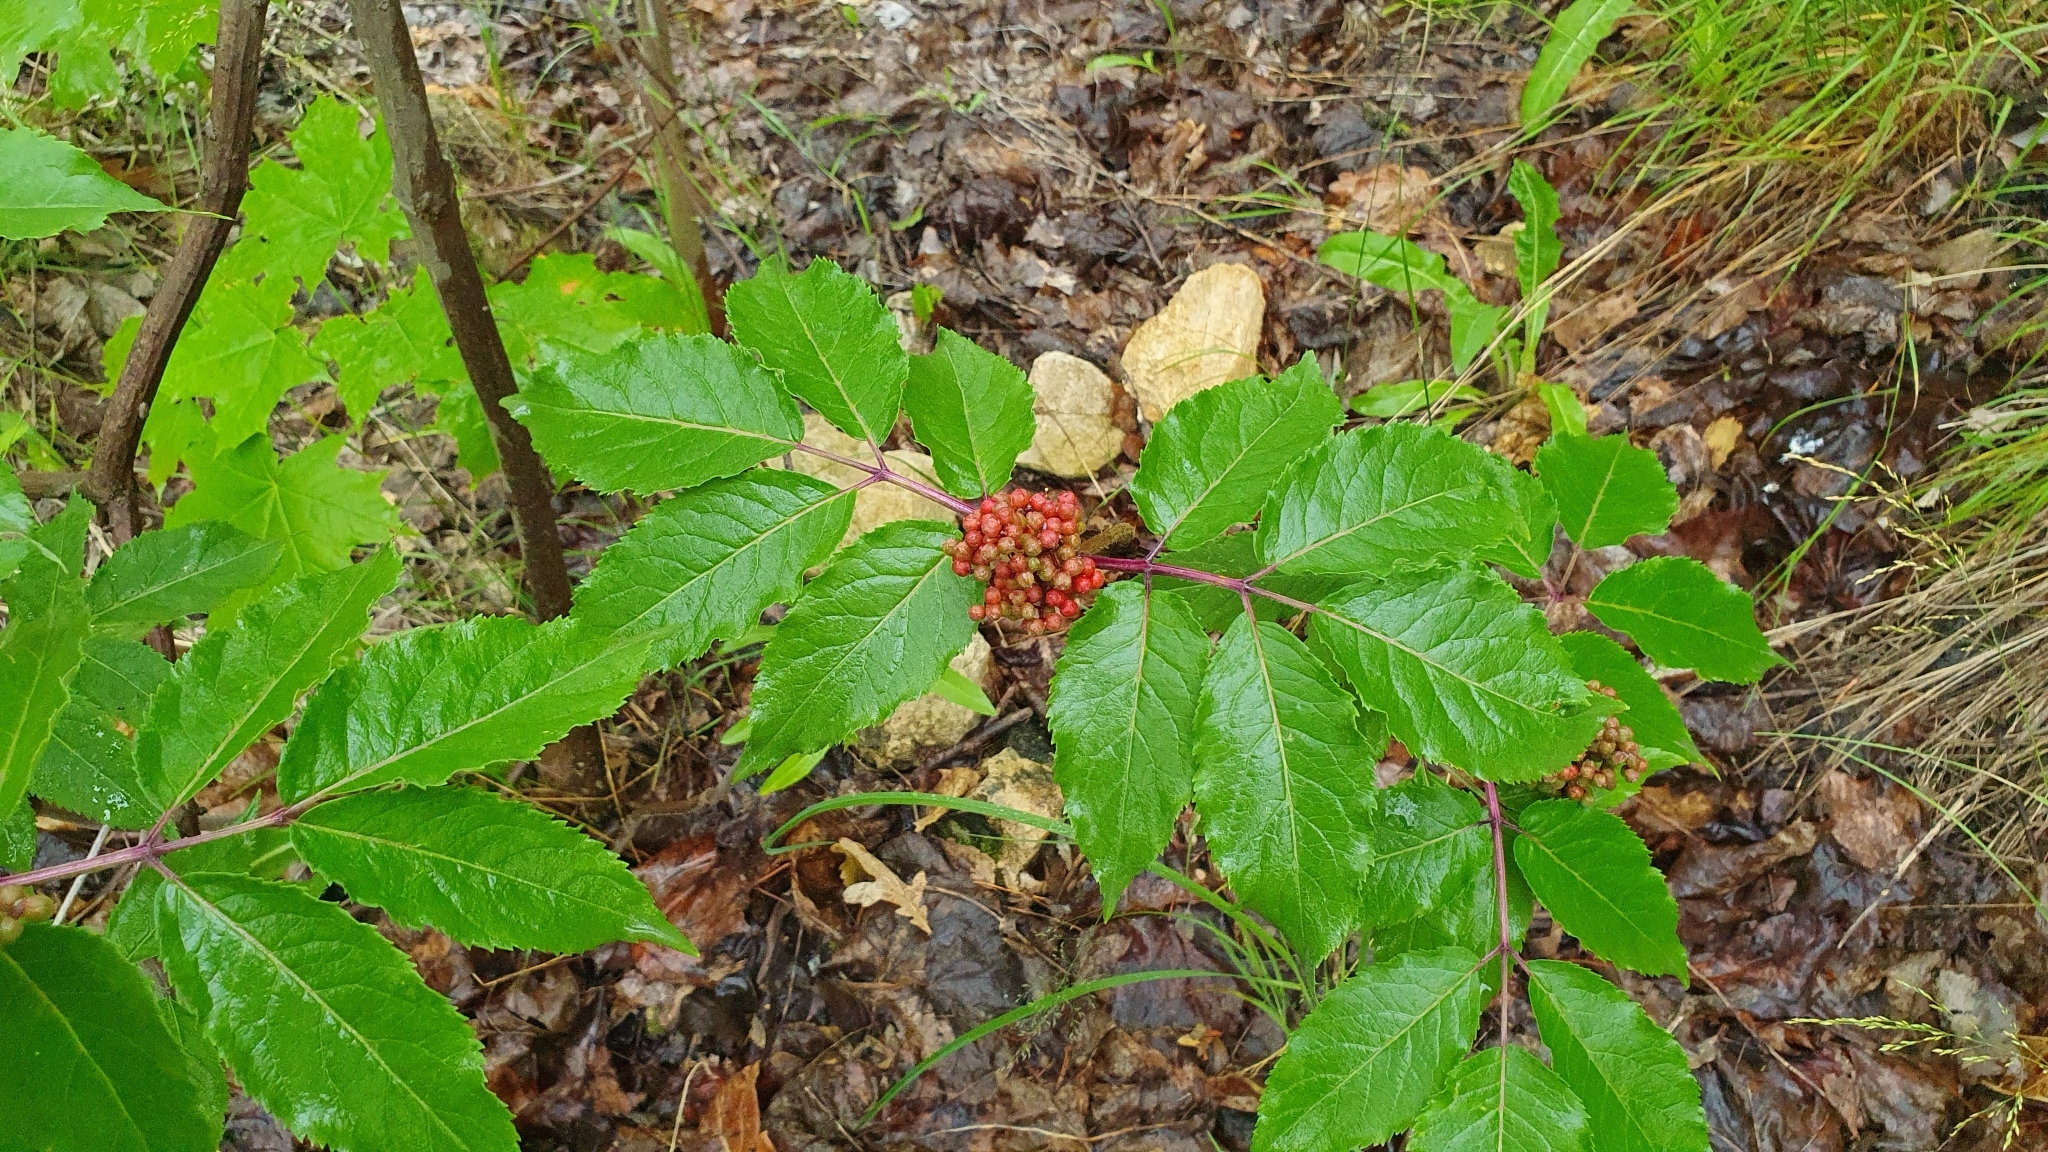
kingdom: Plantae
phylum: Tracheophyta
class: Magnoliopsida
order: Dipsacales
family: Viburnaceae
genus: Sambucus
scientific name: Sambucus racemosa
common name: Red-berried elder
